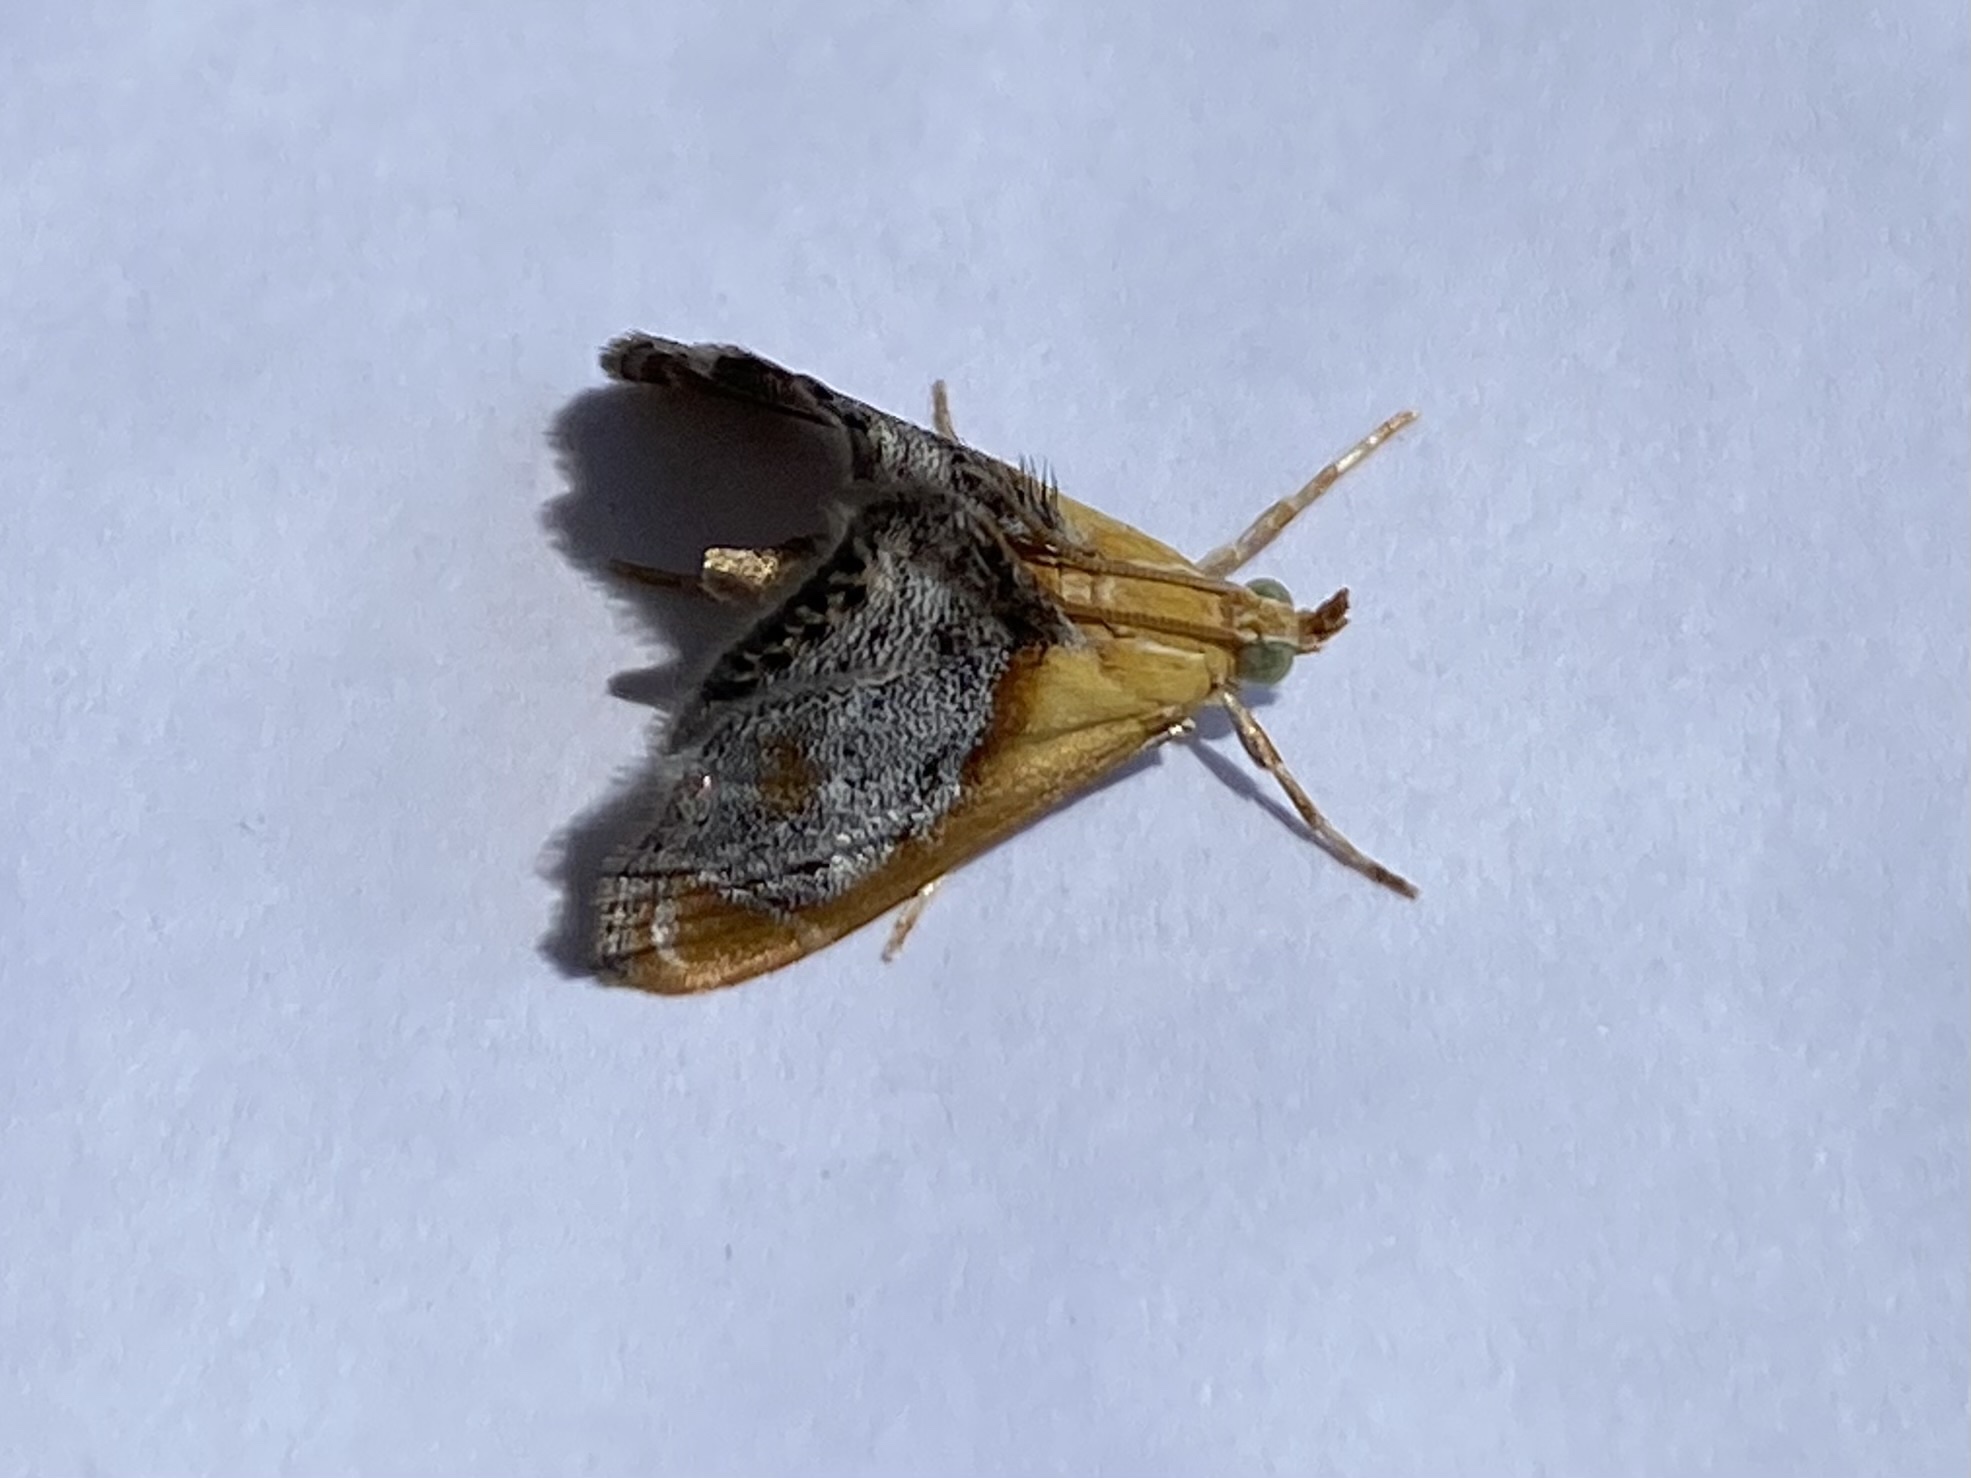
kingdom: Animalia
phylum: Arthropoda
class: Insecta
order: Lepidoptera
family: Crambidae
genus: Chalcoela
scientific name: Chalcoela iphitalis
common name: Sooty-winged chalcoela moth
